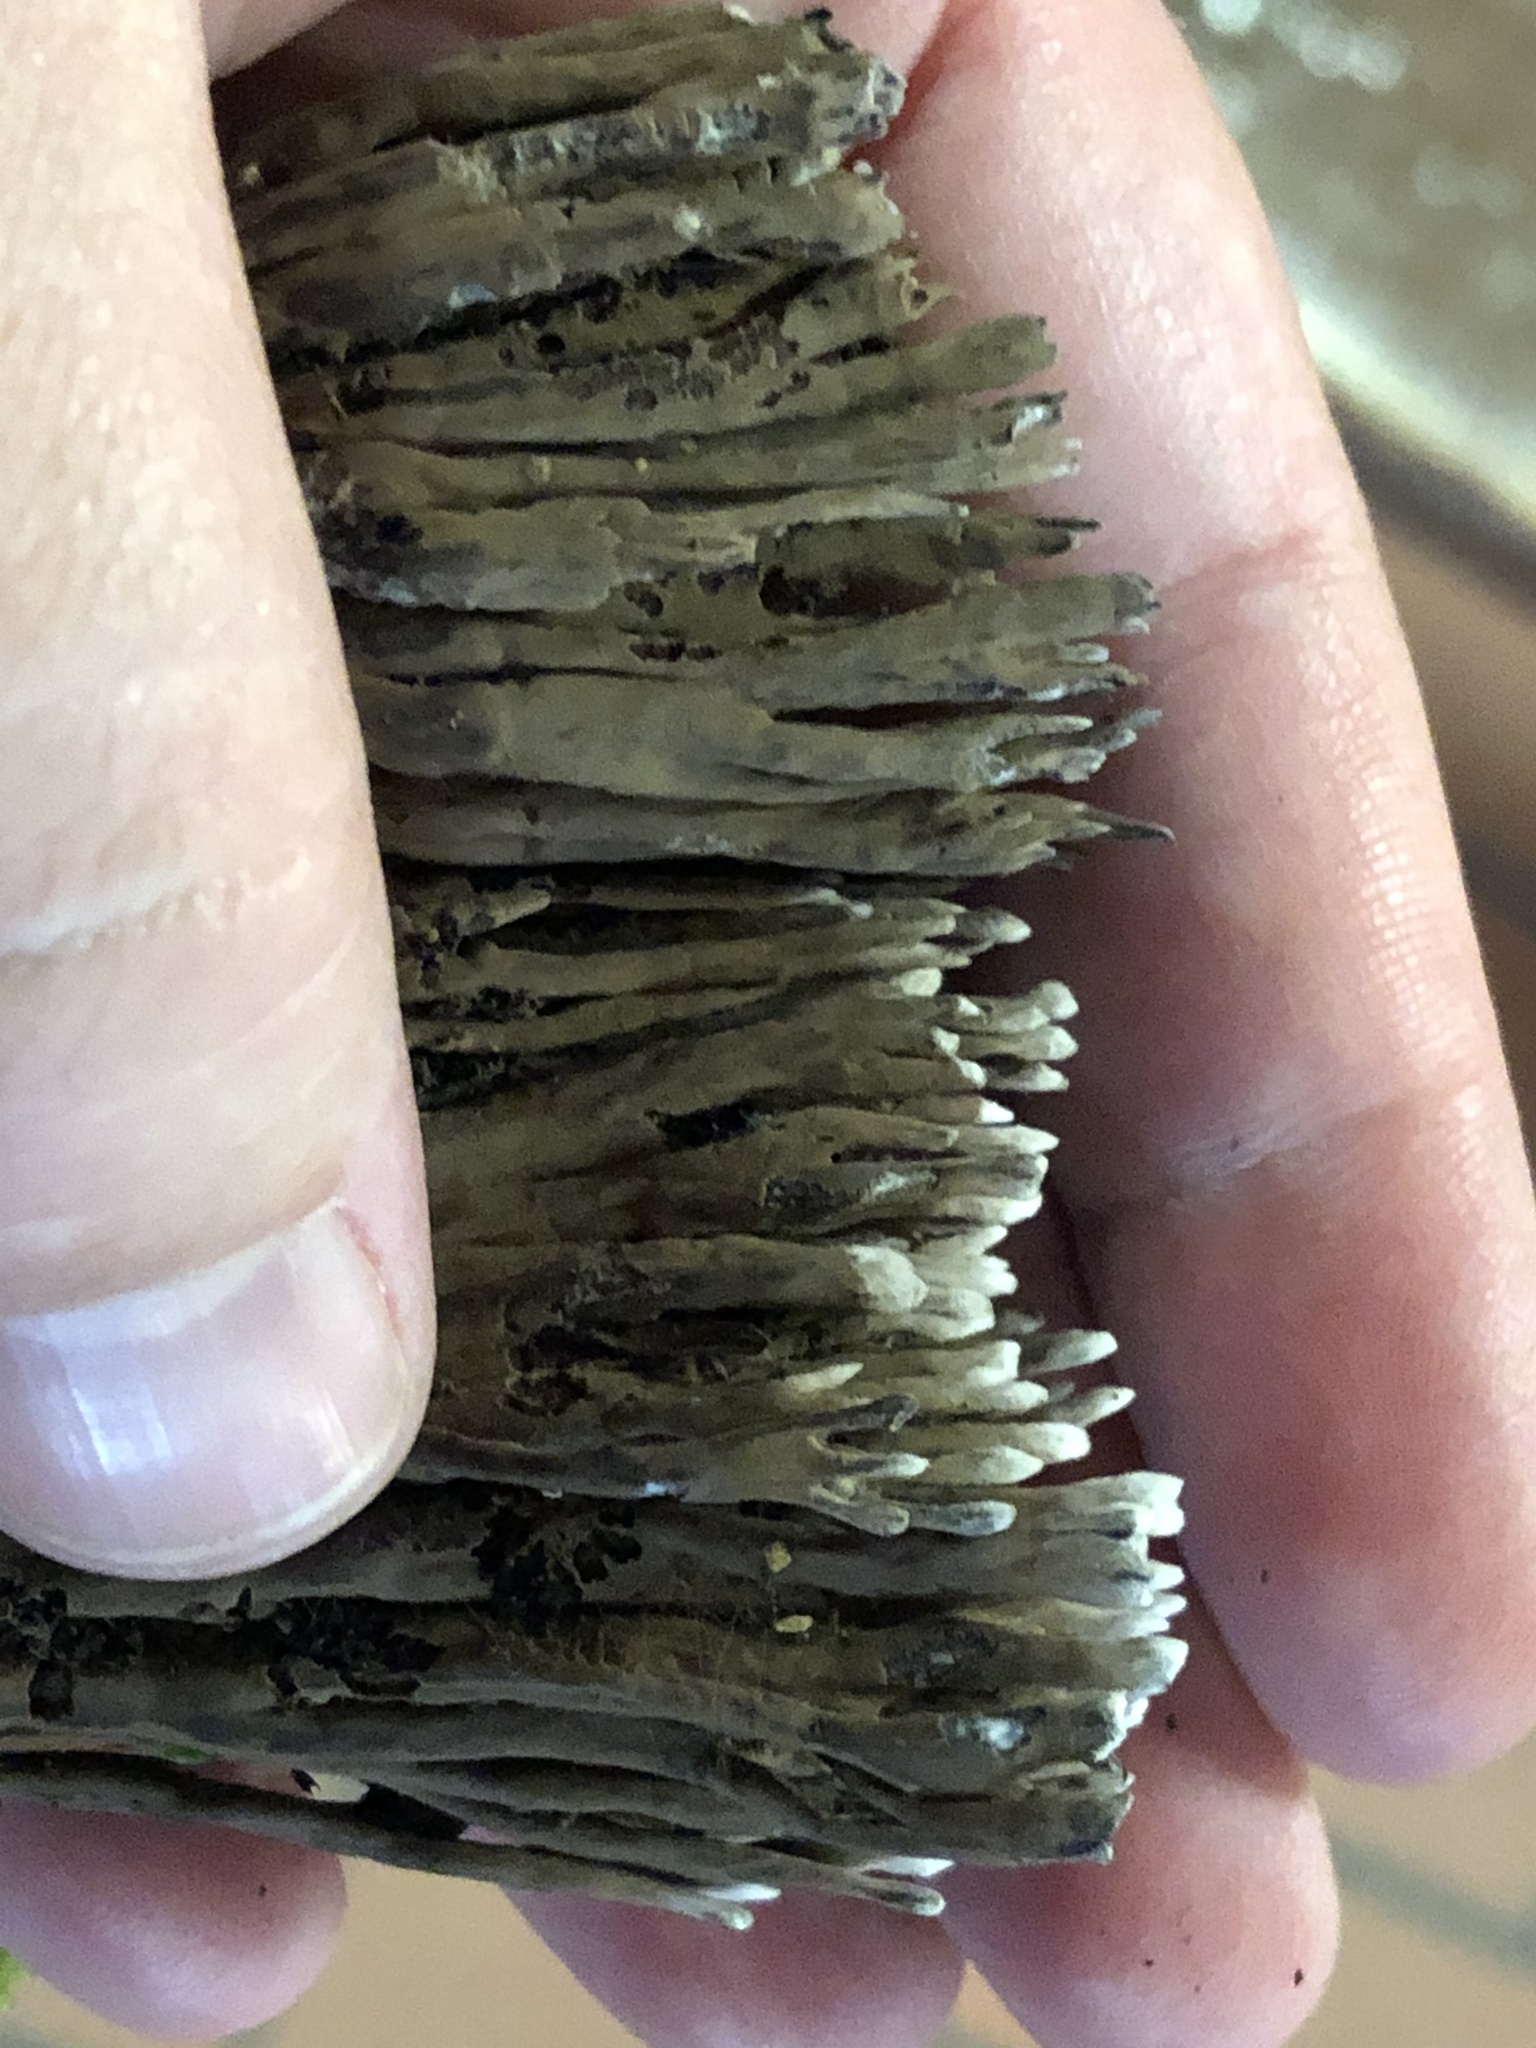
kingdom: Fungi
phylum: Basidiomycota
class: Agaricomycetes
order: Thelephorales
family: Thelephoraceae
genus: Thelephora
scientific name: Thelephora palmata
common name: Stinking earthfan
